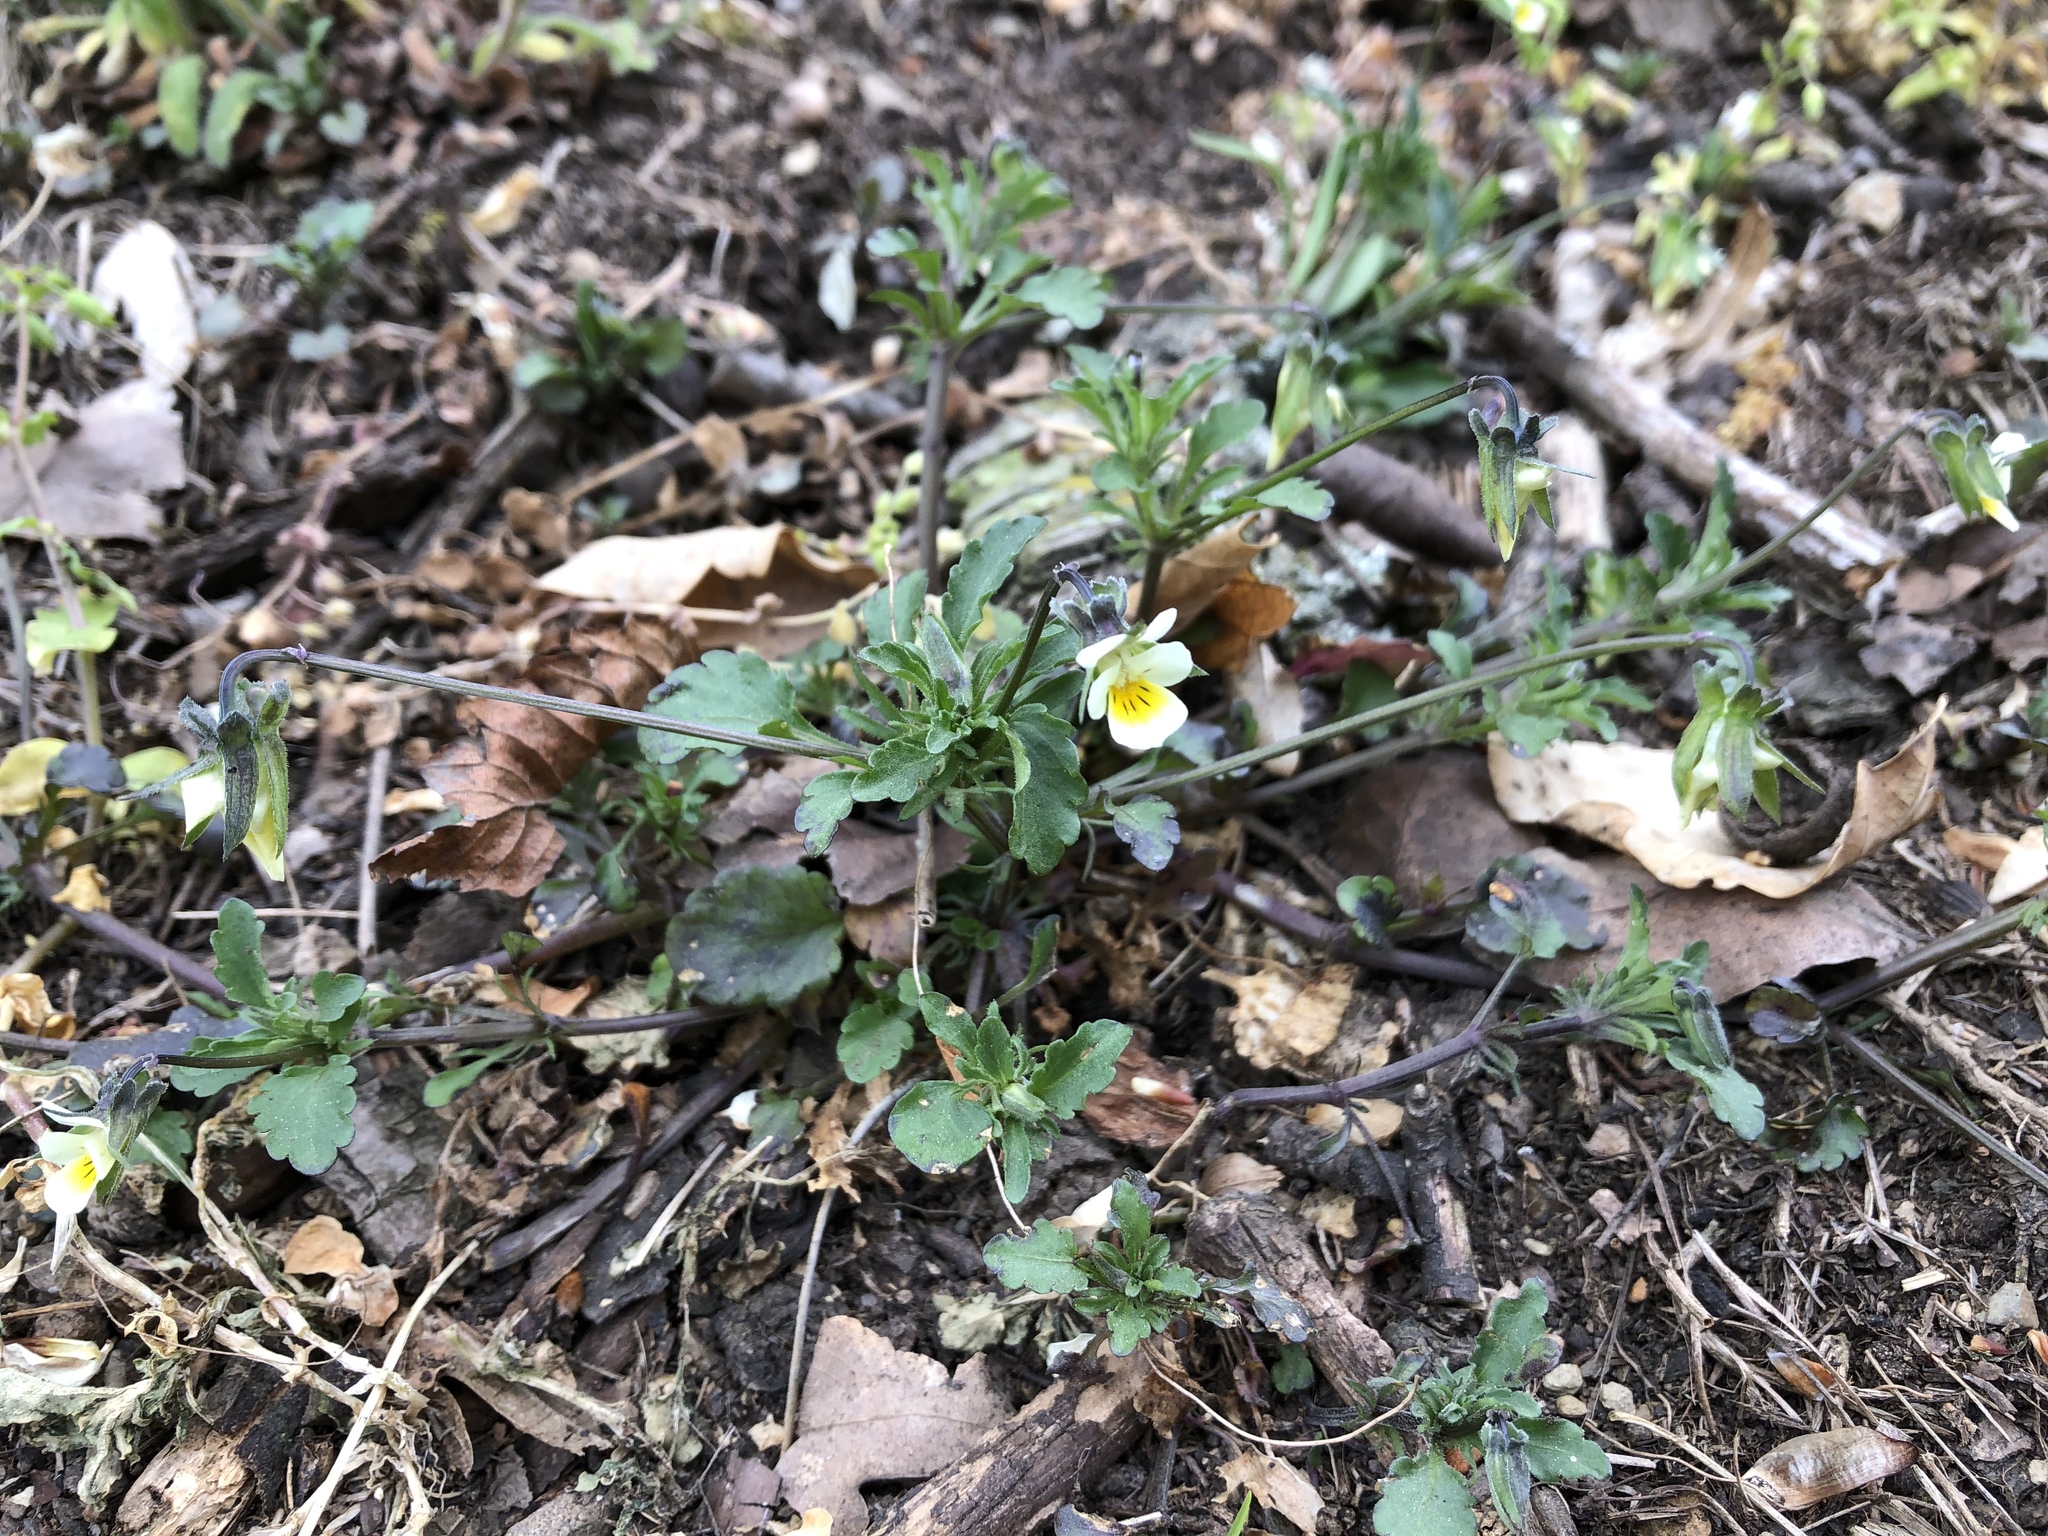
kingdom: Plantae
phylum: Tracheophyta
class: Magnoliopsida
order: Malpighiales
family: Violaceae
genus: Viola
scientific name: Viola arvensis
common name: Field pansy
